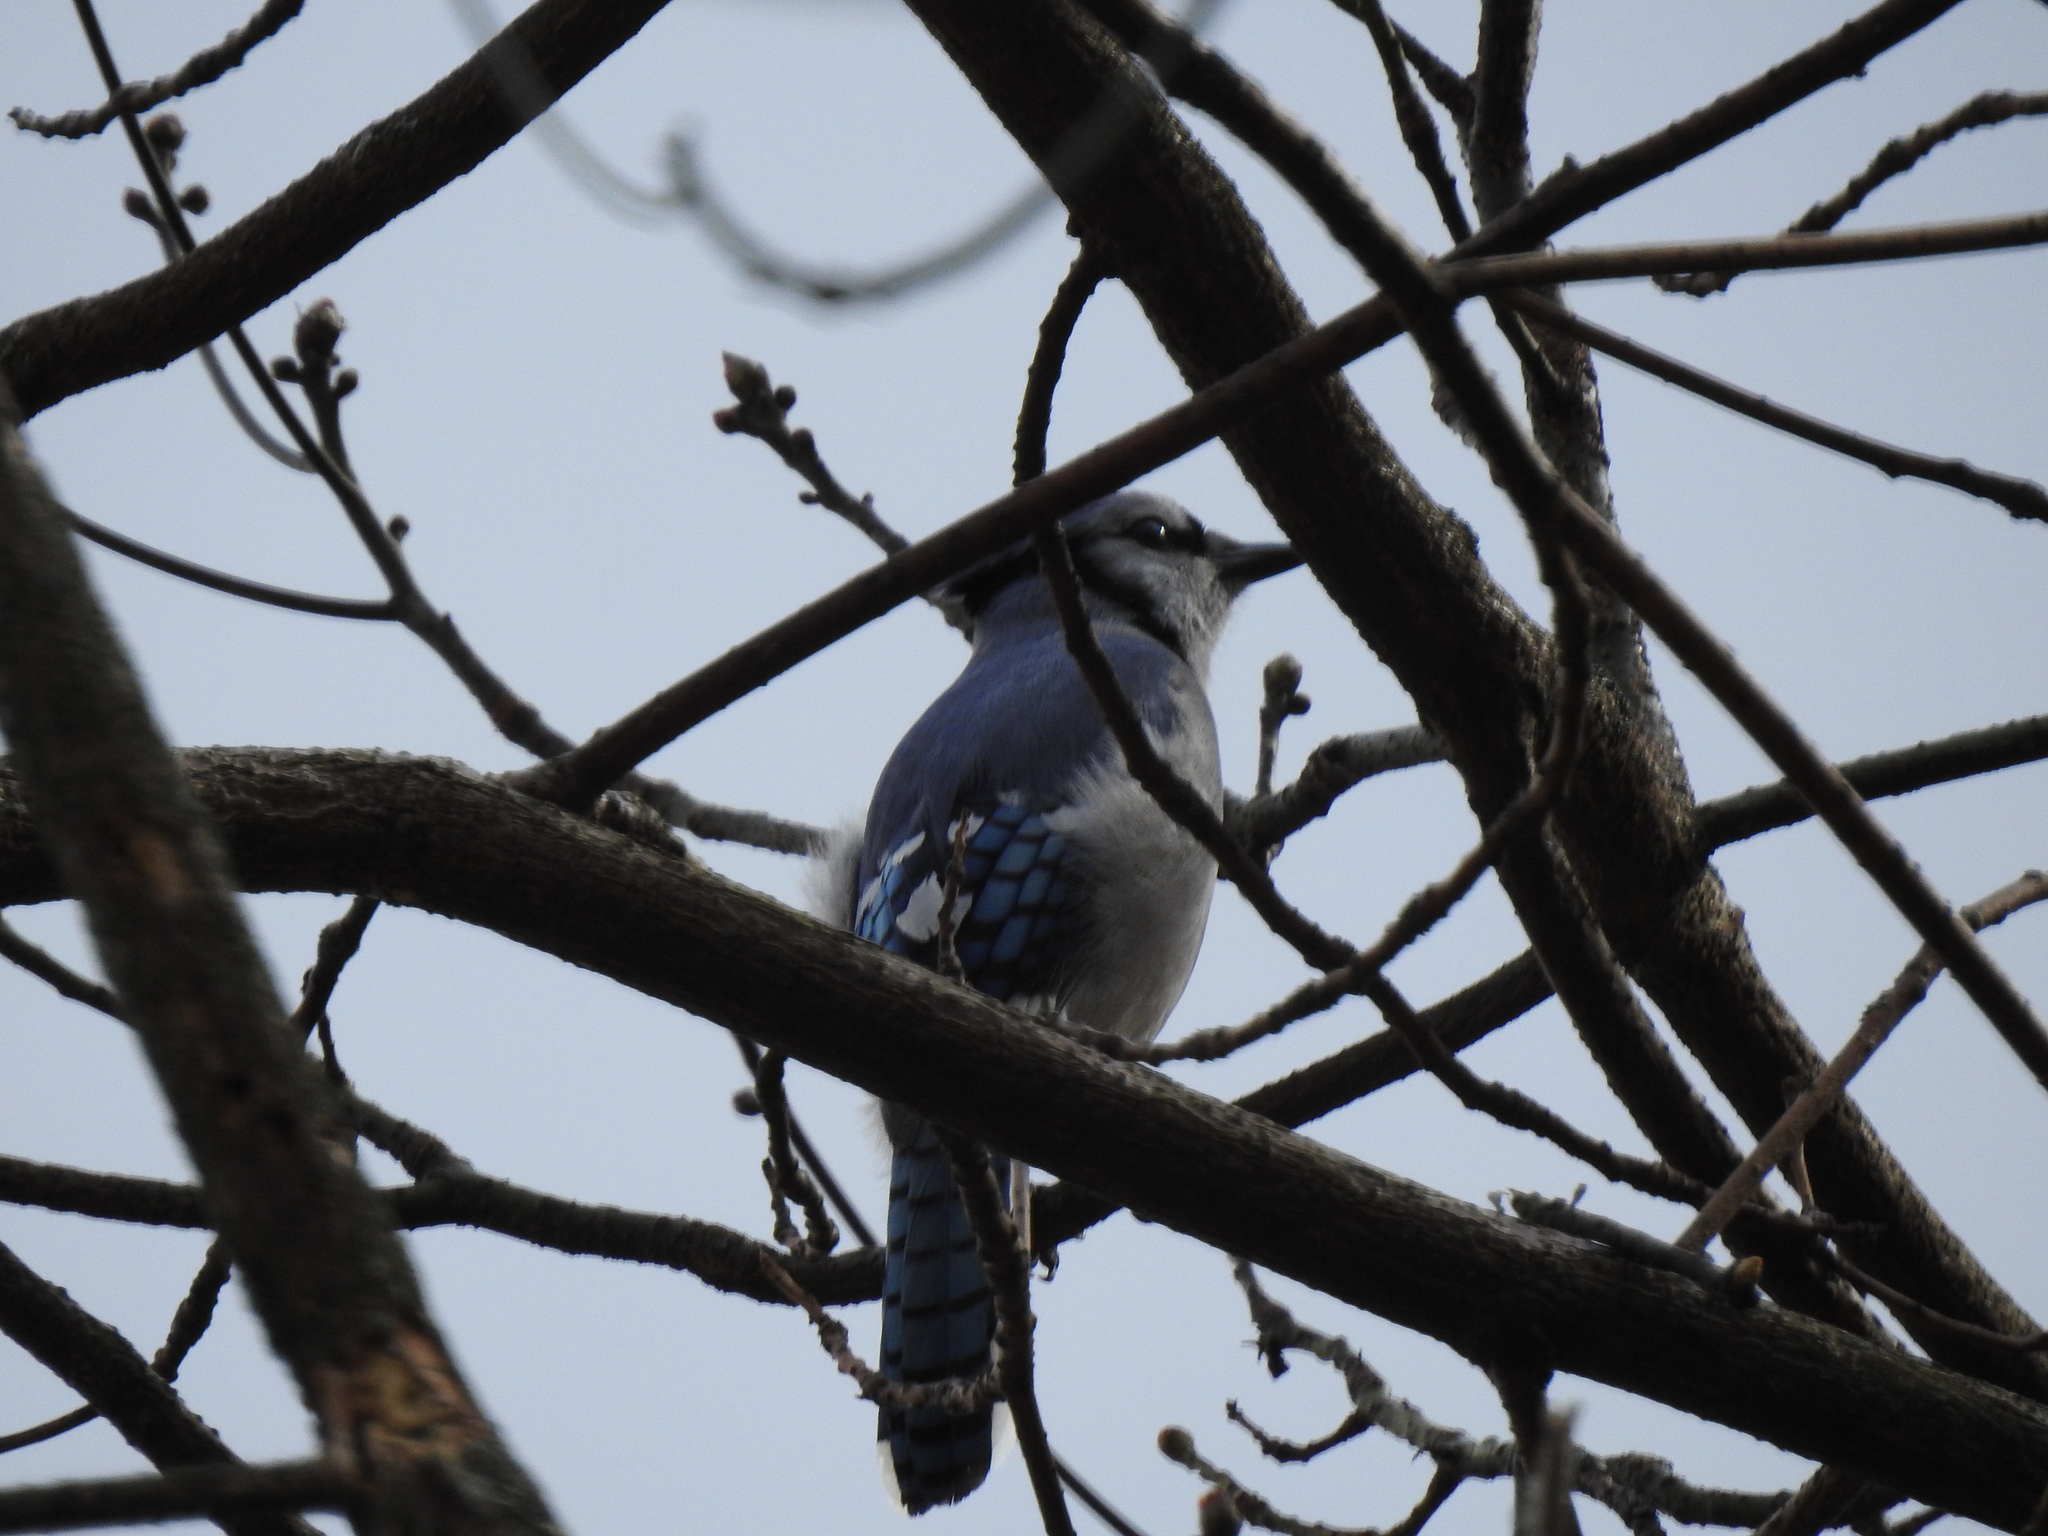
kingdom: Animalia
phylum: Chordata
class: Aves
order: Passeriformes
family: Corvidae
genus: Cyanocitta
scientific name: Cyanocitta cristata
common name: Blue jay
